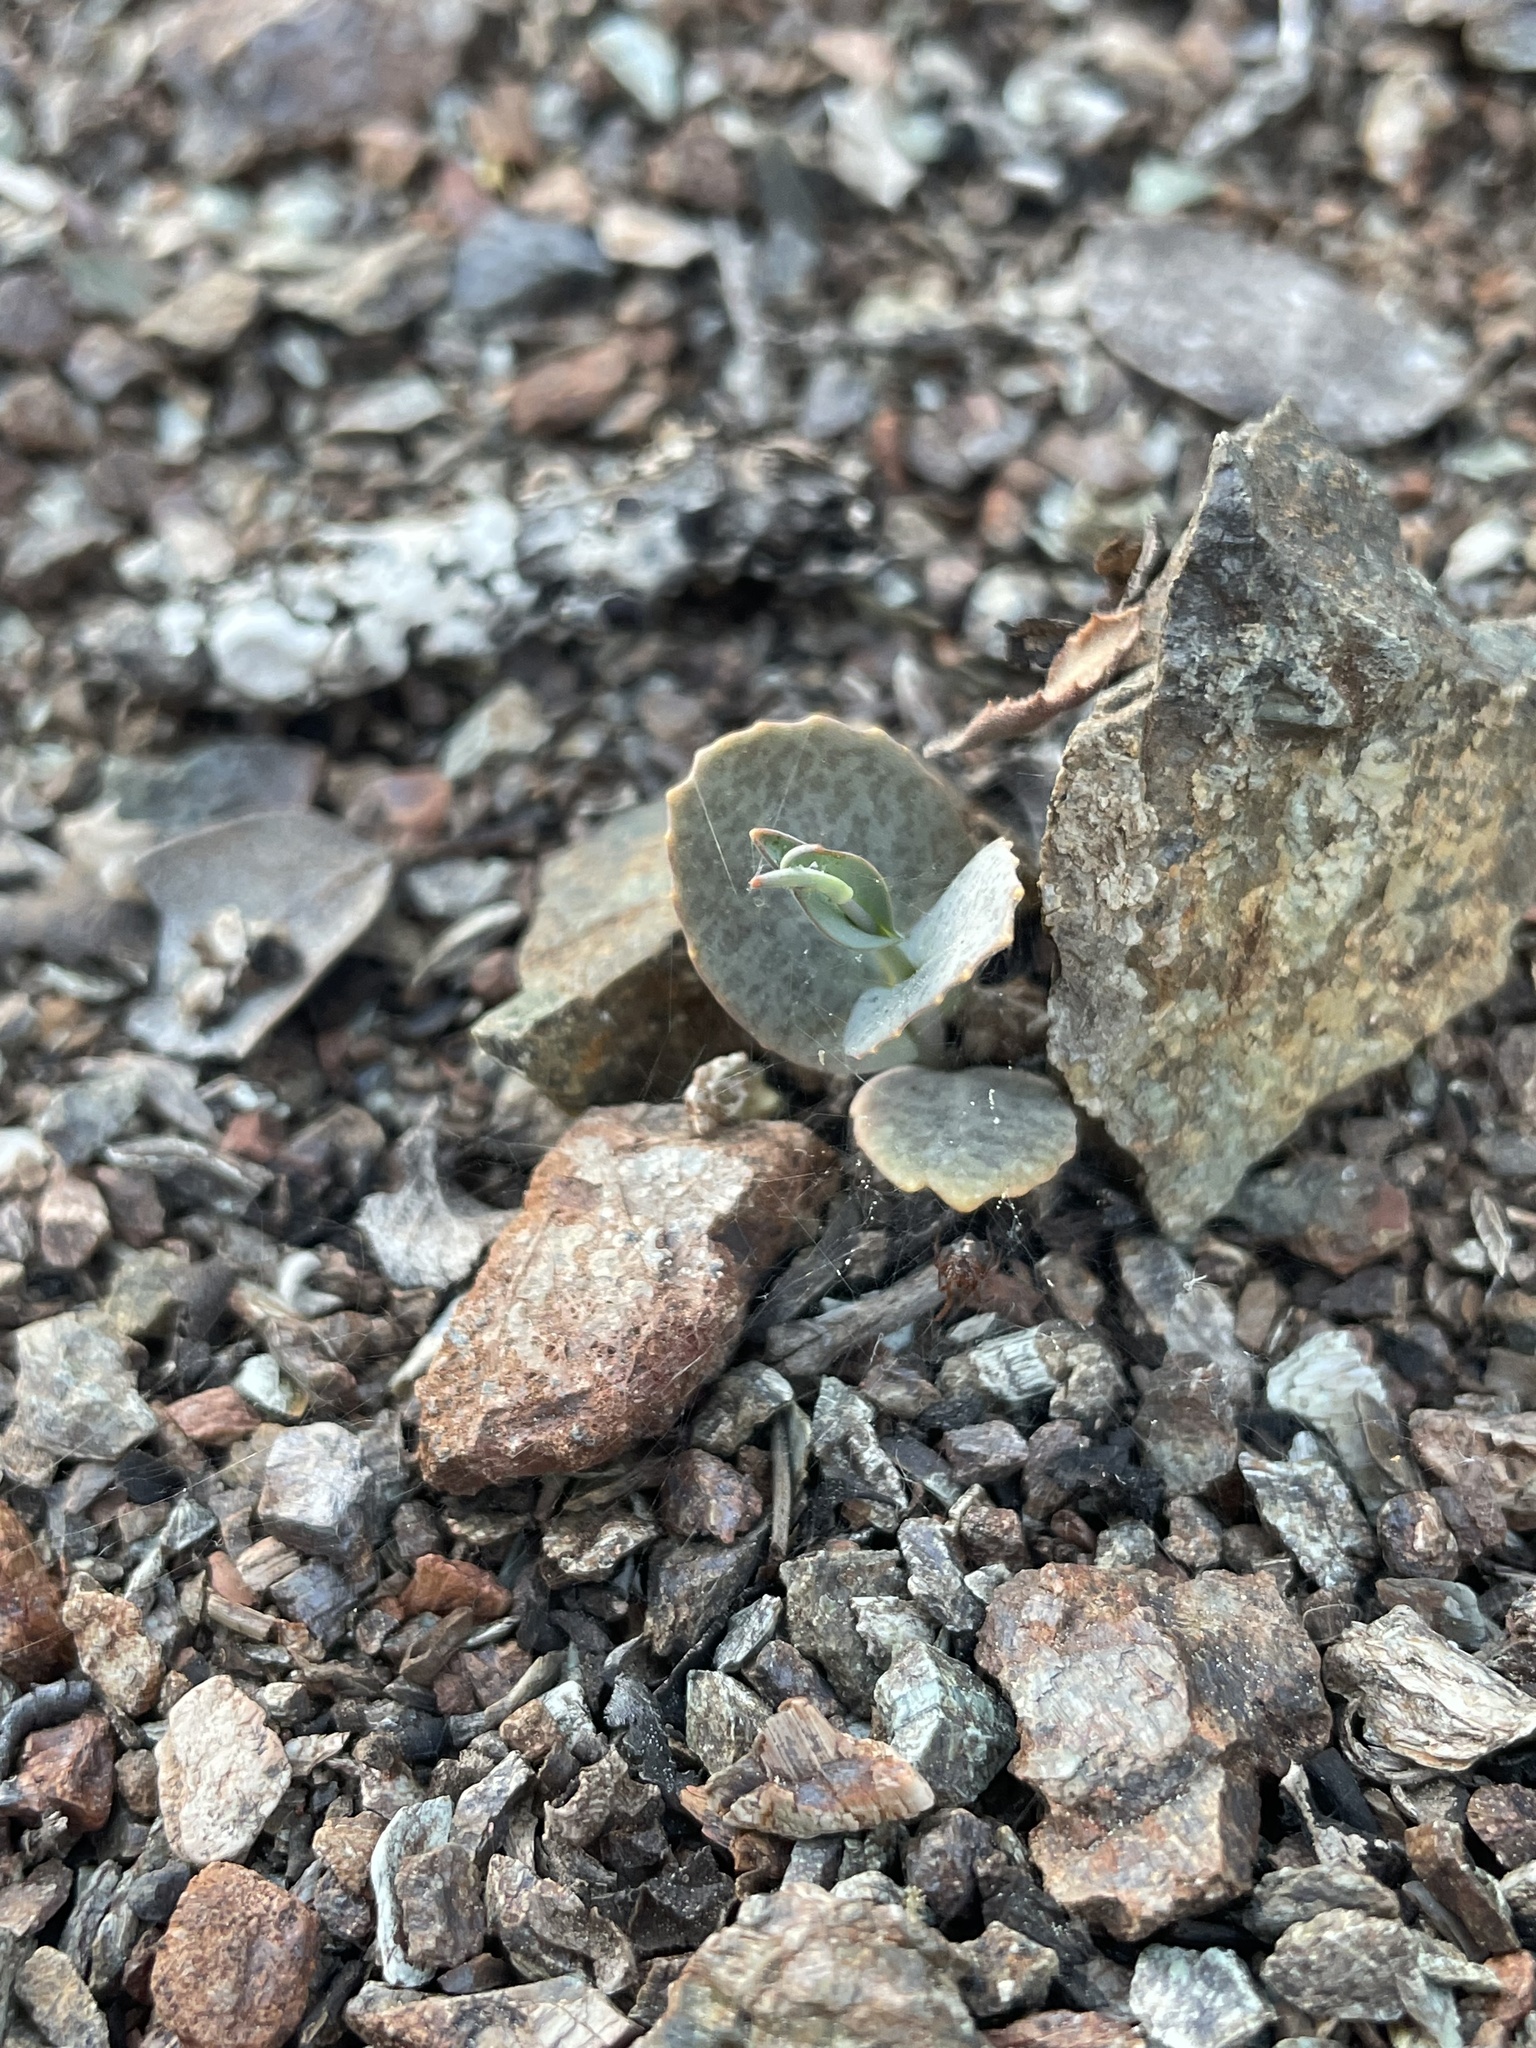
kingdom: Plantae
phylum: Tracheophyta
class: Magnoliopsida
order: Brassicales
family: Brassicaceae
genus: Streptanthus
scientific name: Streptanthus breweri
